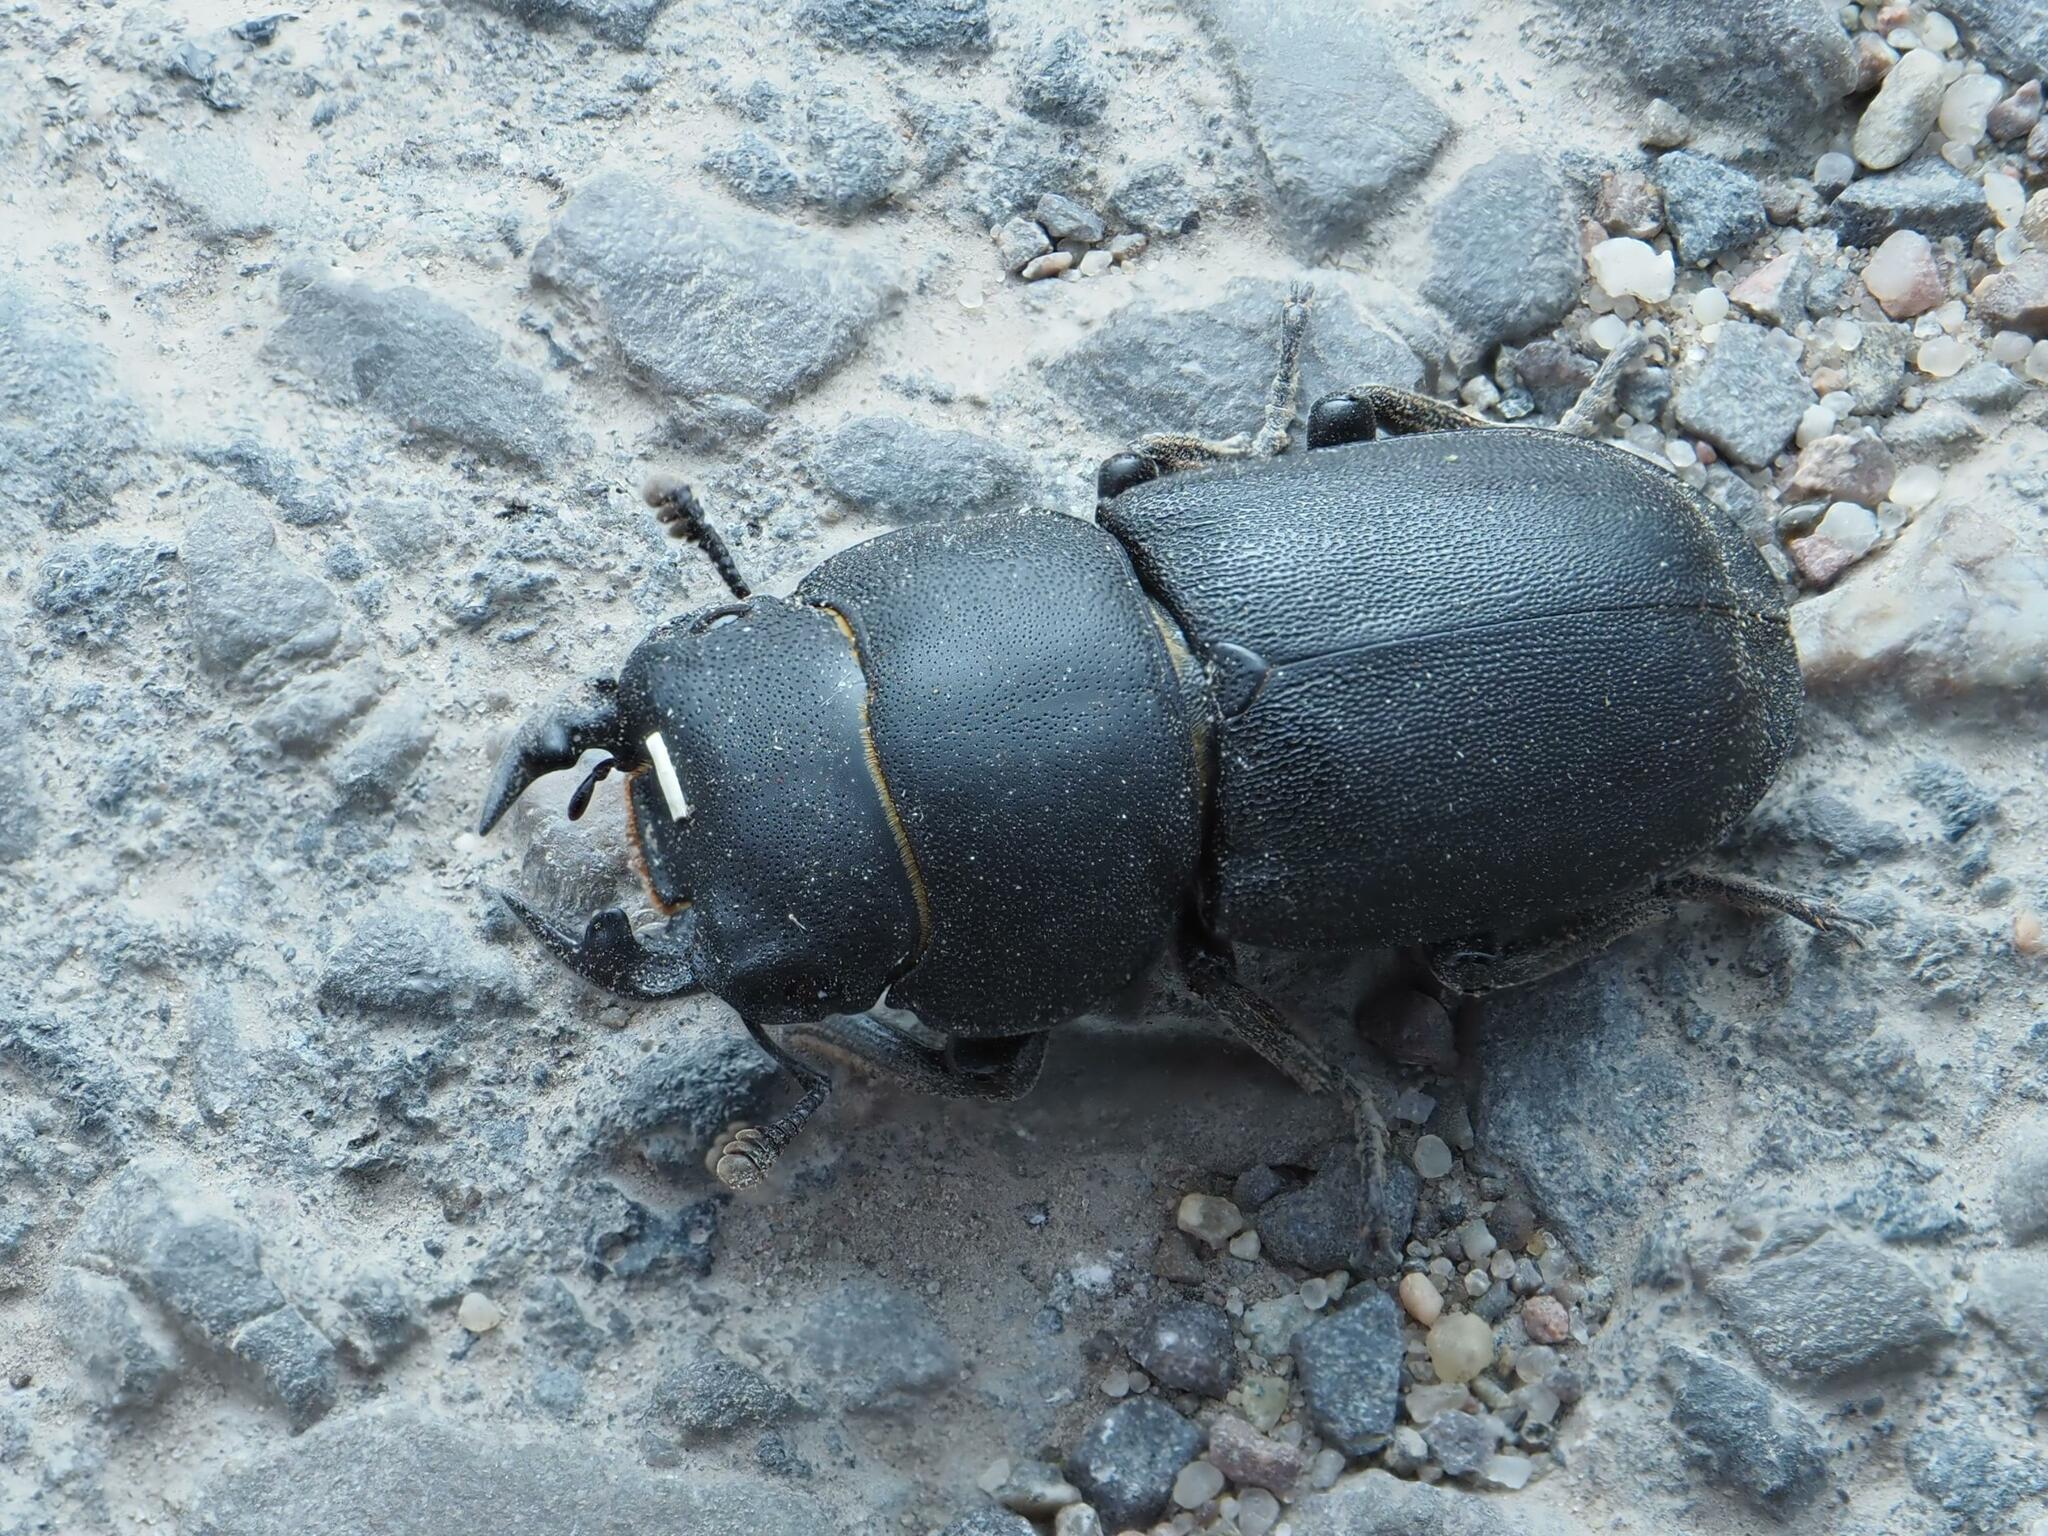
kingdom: Animalia
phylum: Arthropoda
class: Insecta
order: Coleoptera
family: Lucanidae
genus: Dorcus
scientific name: Dorcus parallelipipedus
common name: Lesser stag beetle
